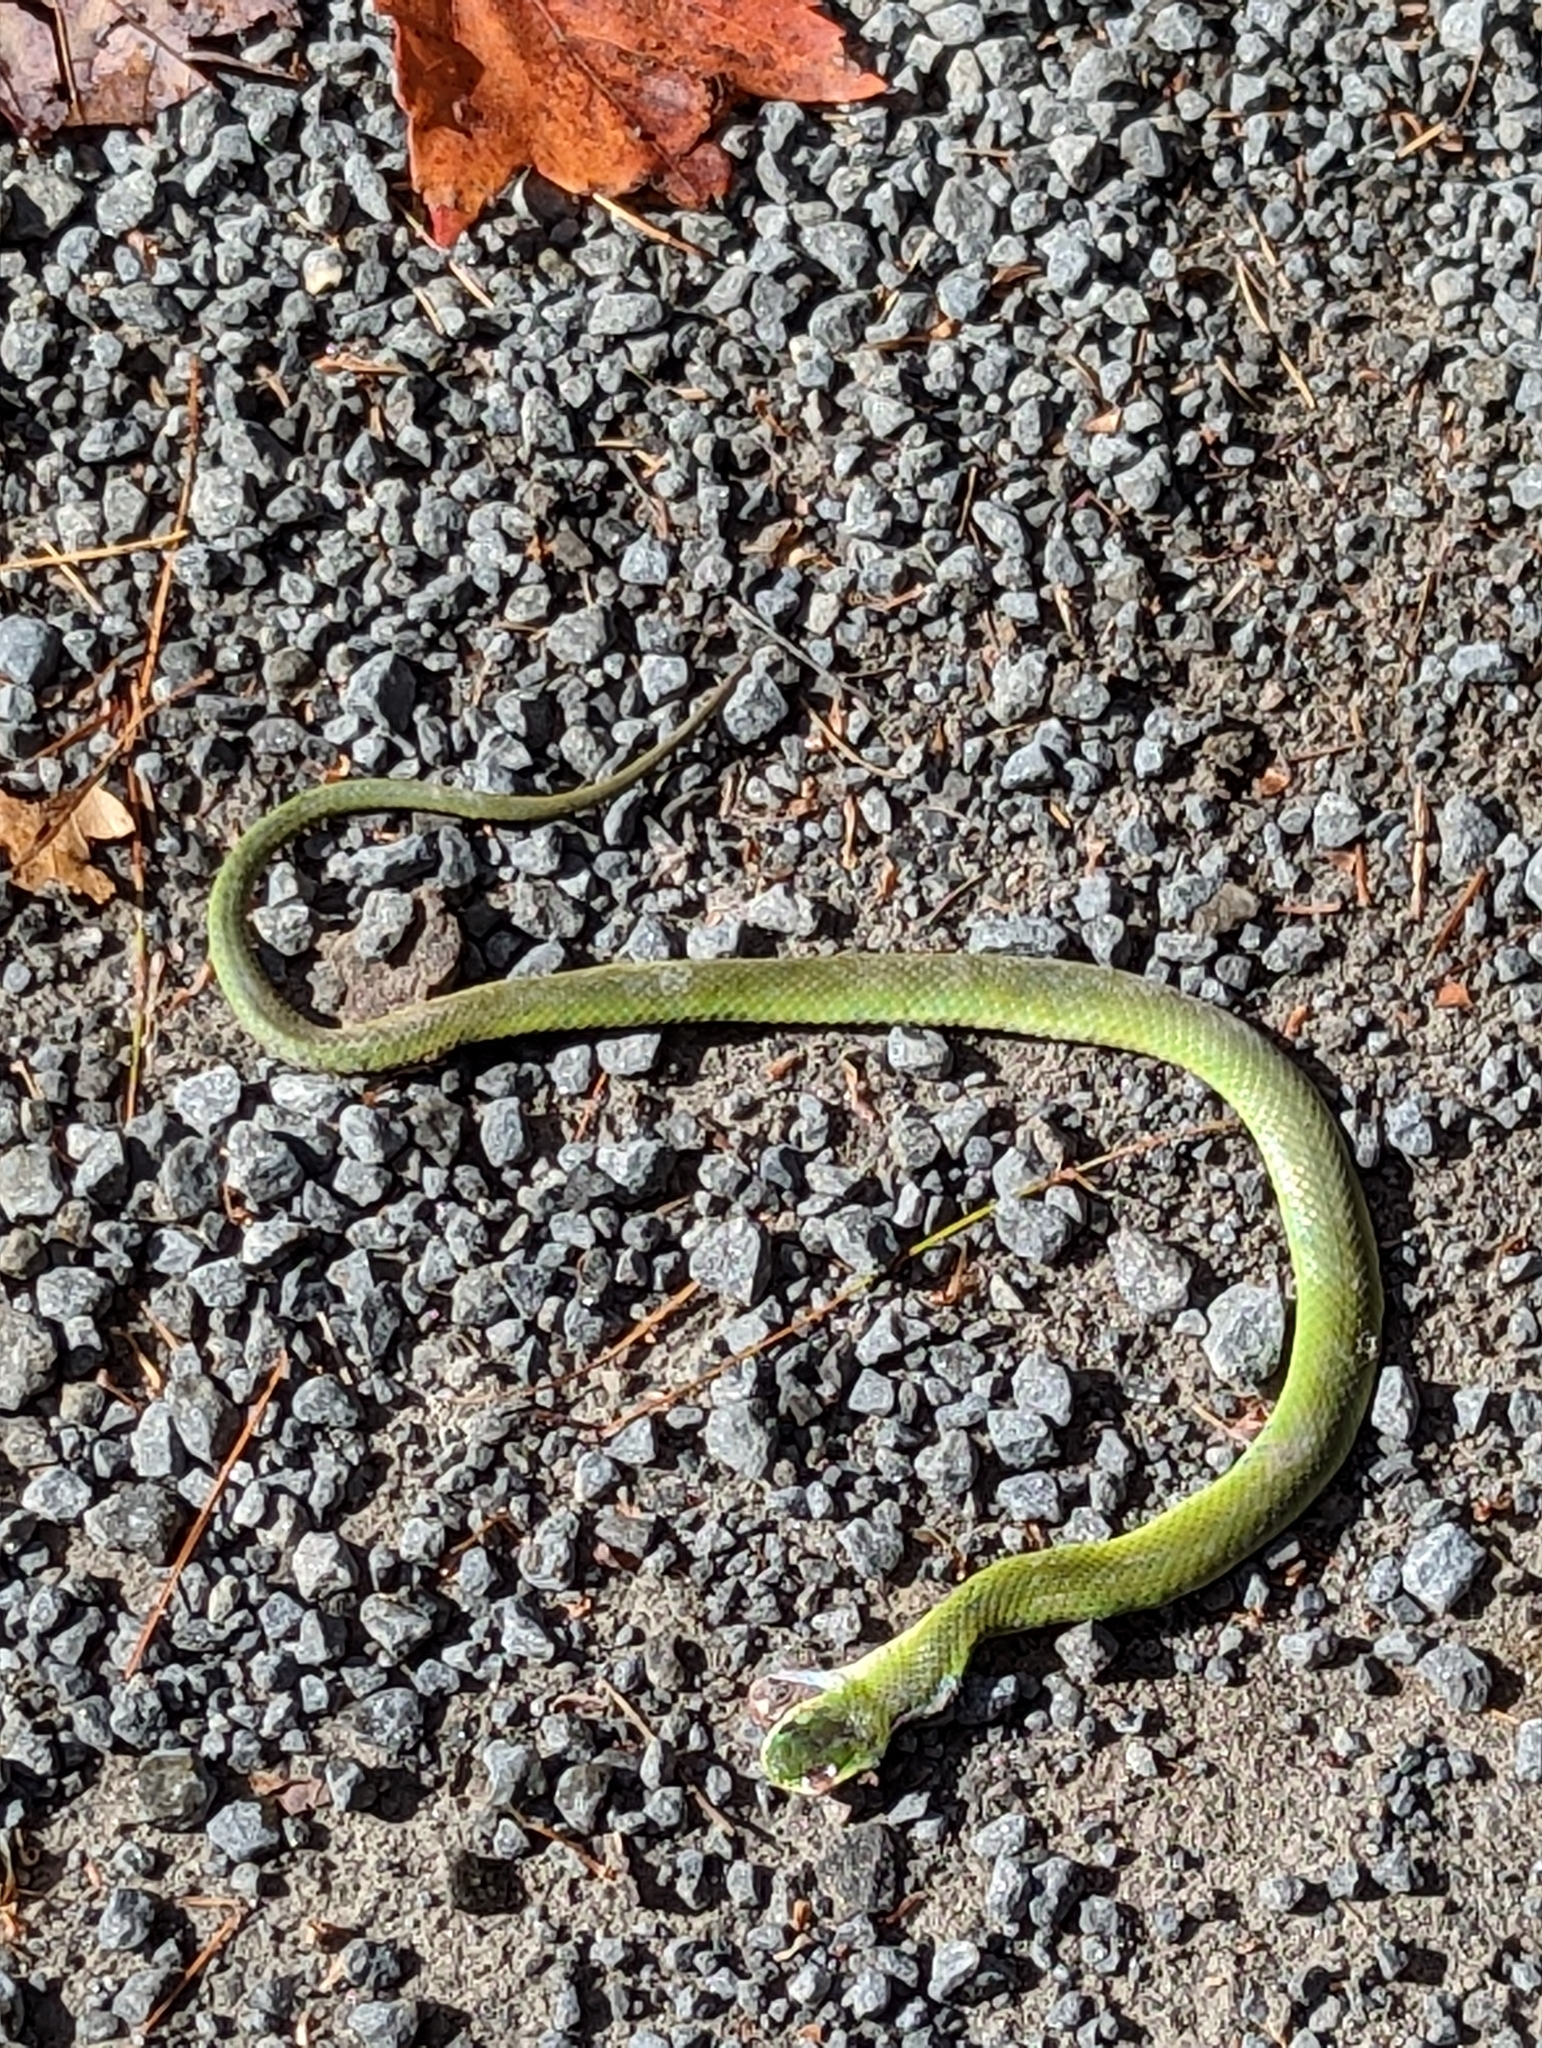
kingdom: Animalia
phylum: Chordata
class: Squamata
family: Colubridae
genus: Opheodrys
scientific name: Opheodrys vernalis
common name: Smooth green snake
